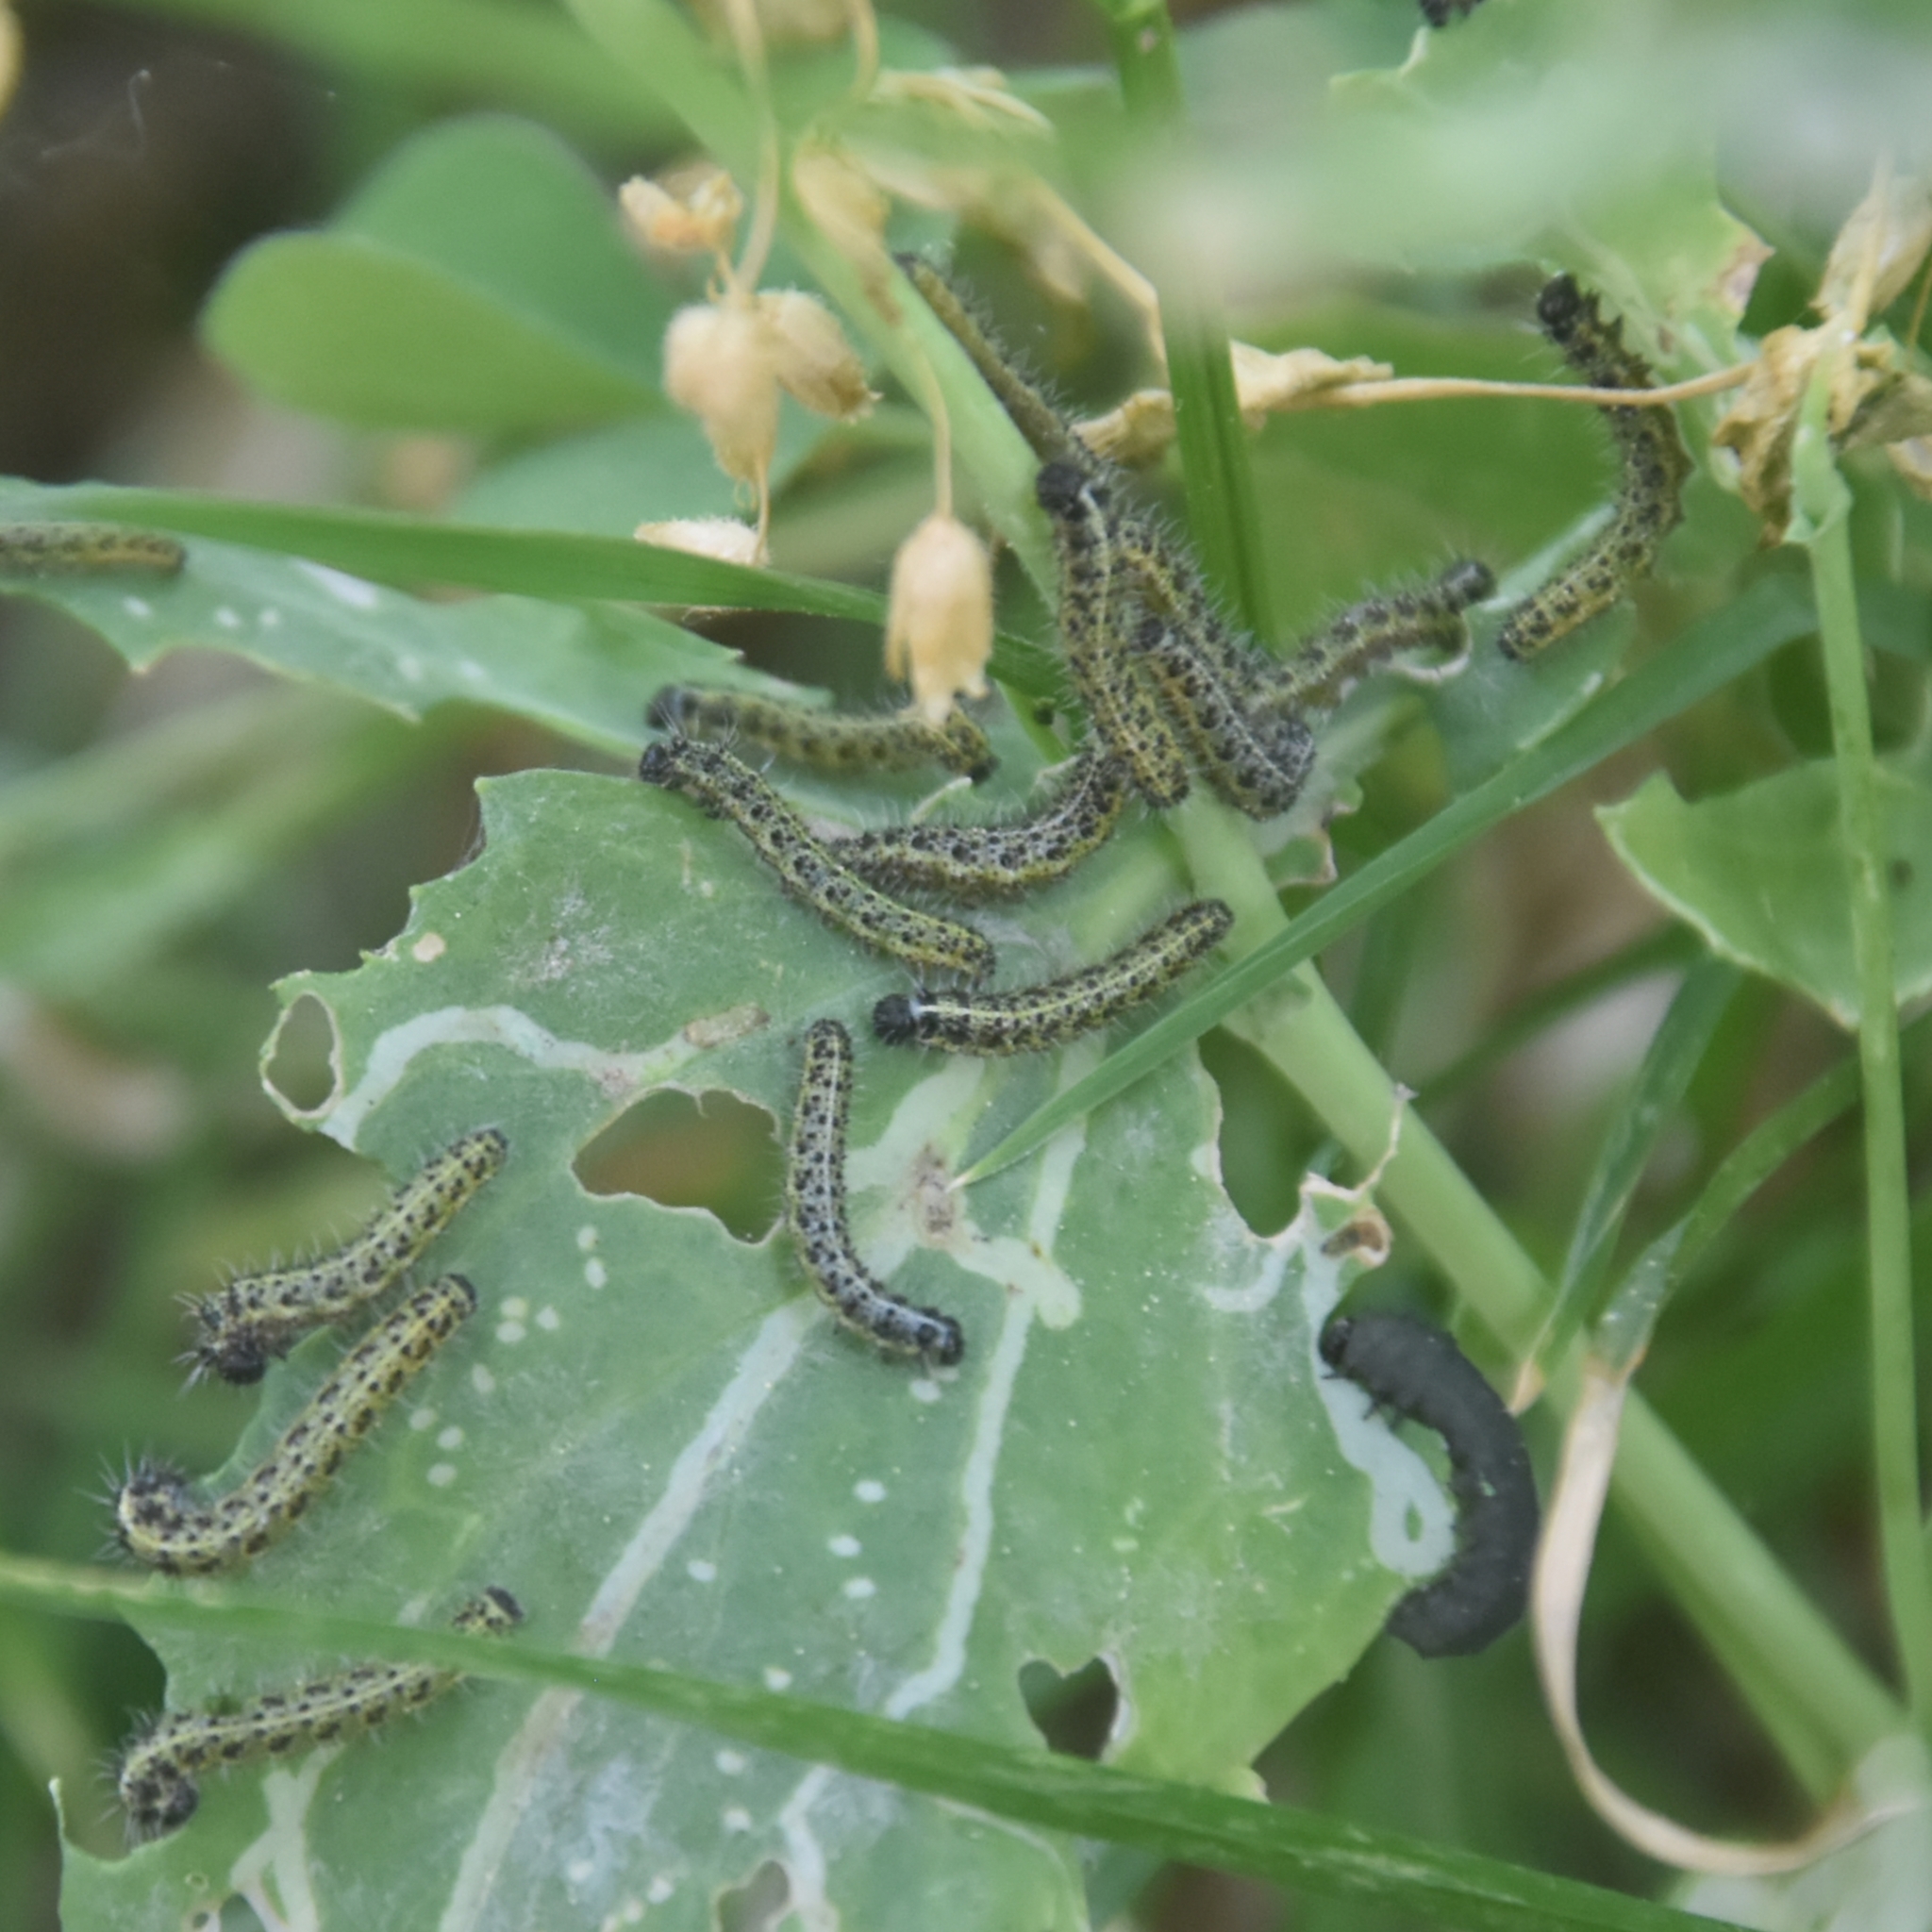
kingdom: Animalia
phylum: Arthropoda
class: Insecta
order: Lepidoptera
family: Pieridae
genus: Pieris
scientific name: Pieris brassicae
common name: Large white
